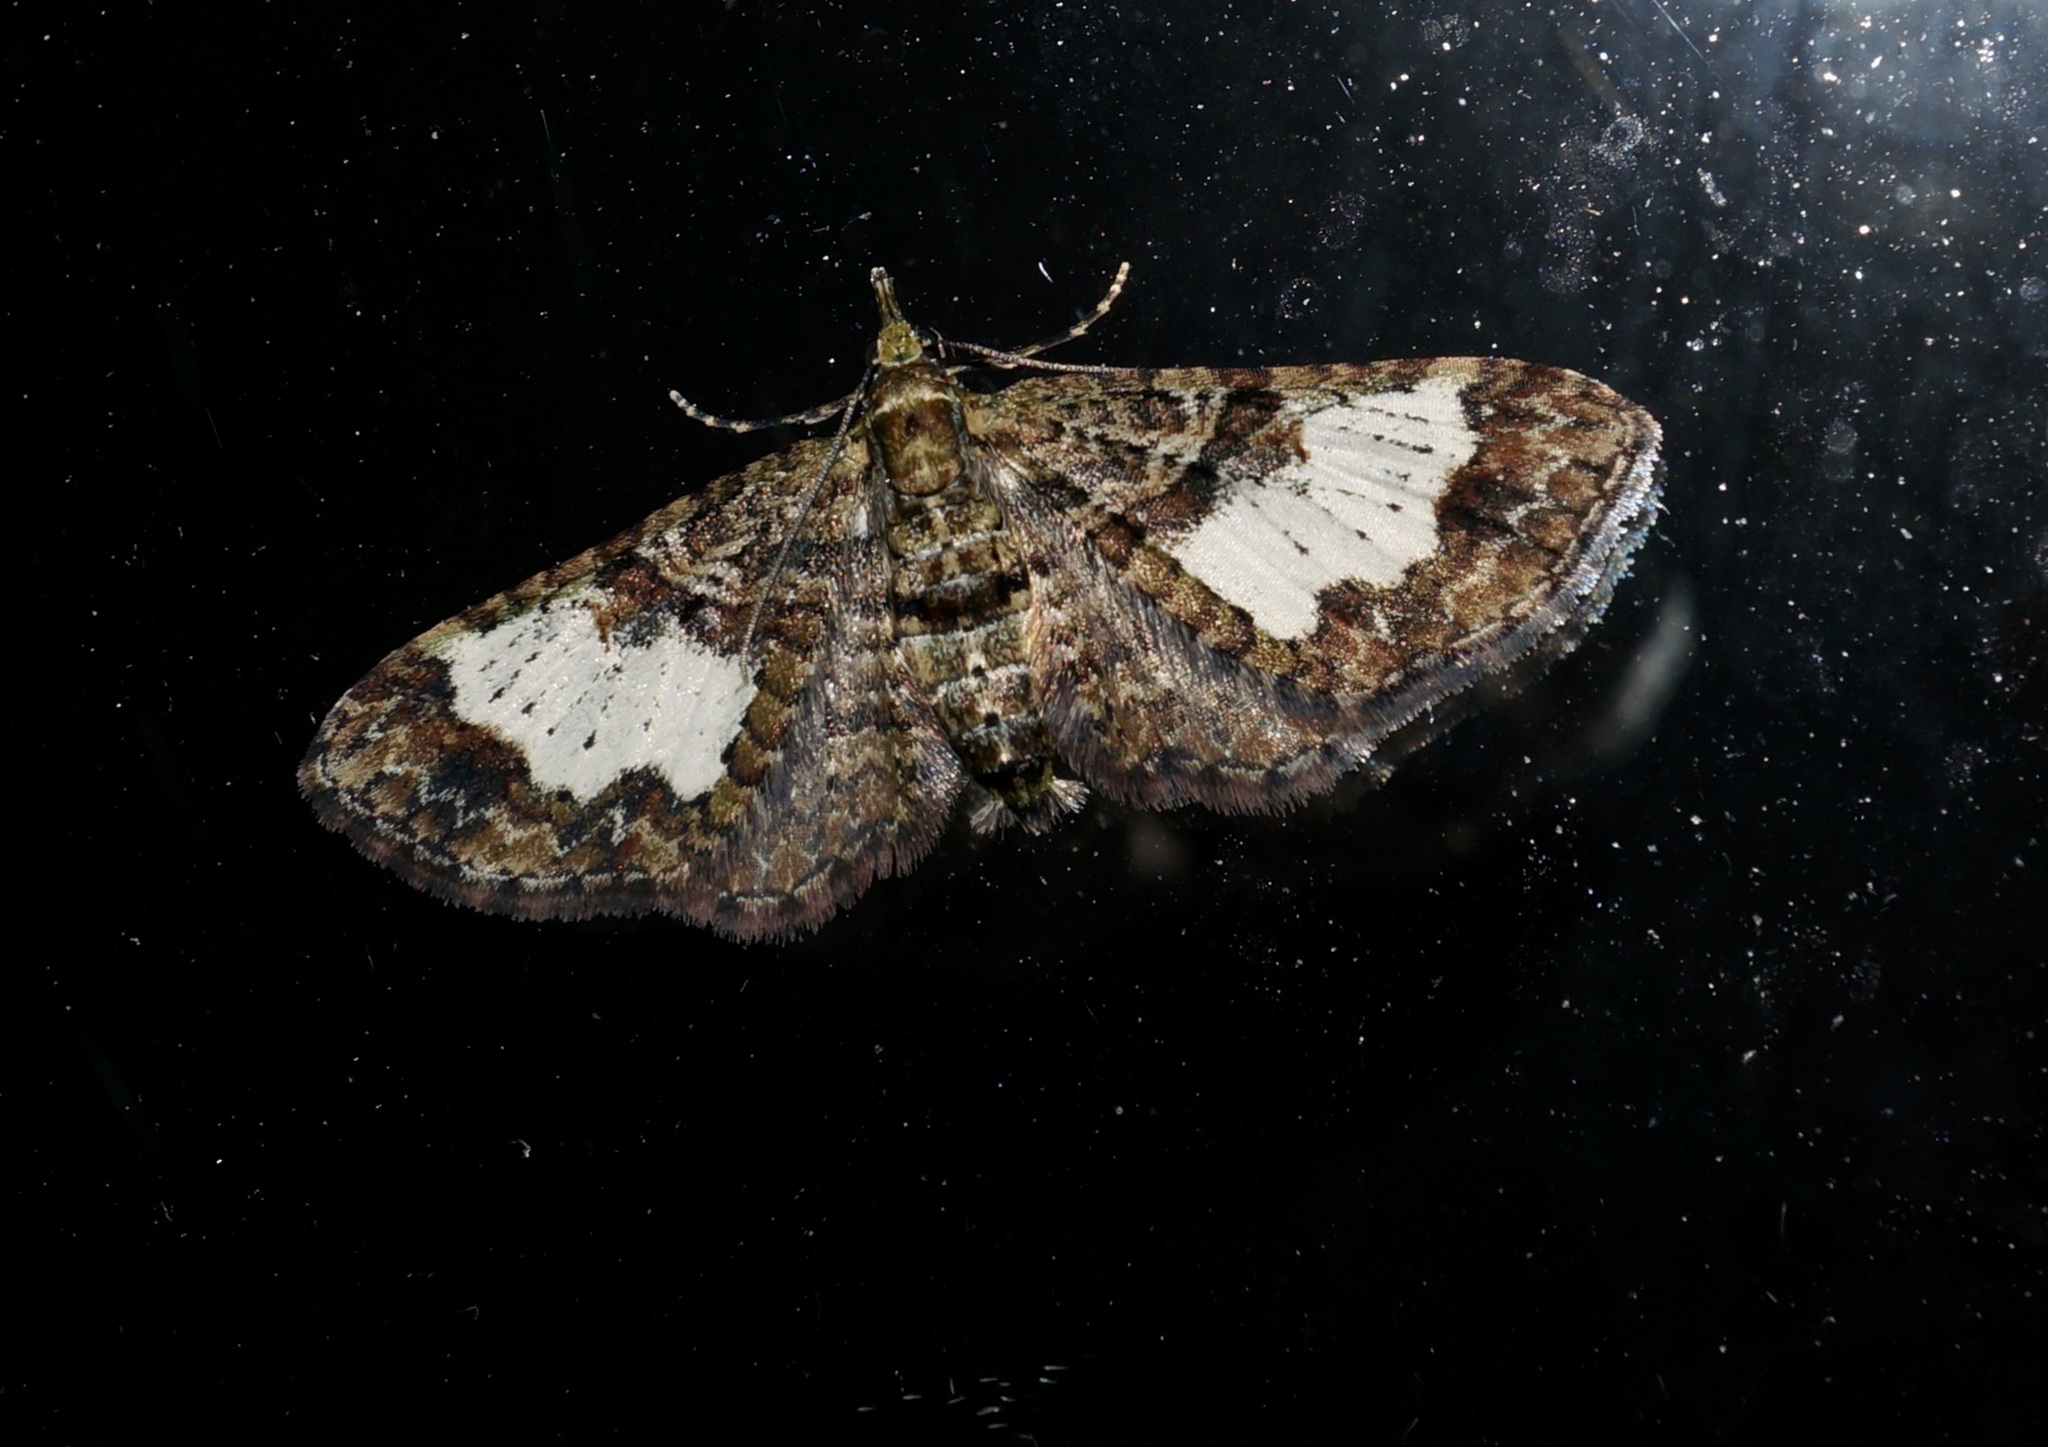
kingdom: Animalia
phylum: Arthropoda
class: Insecta
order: Lepidoptera
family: Geometridae
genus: Idaea
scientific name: Idaea mutanda
